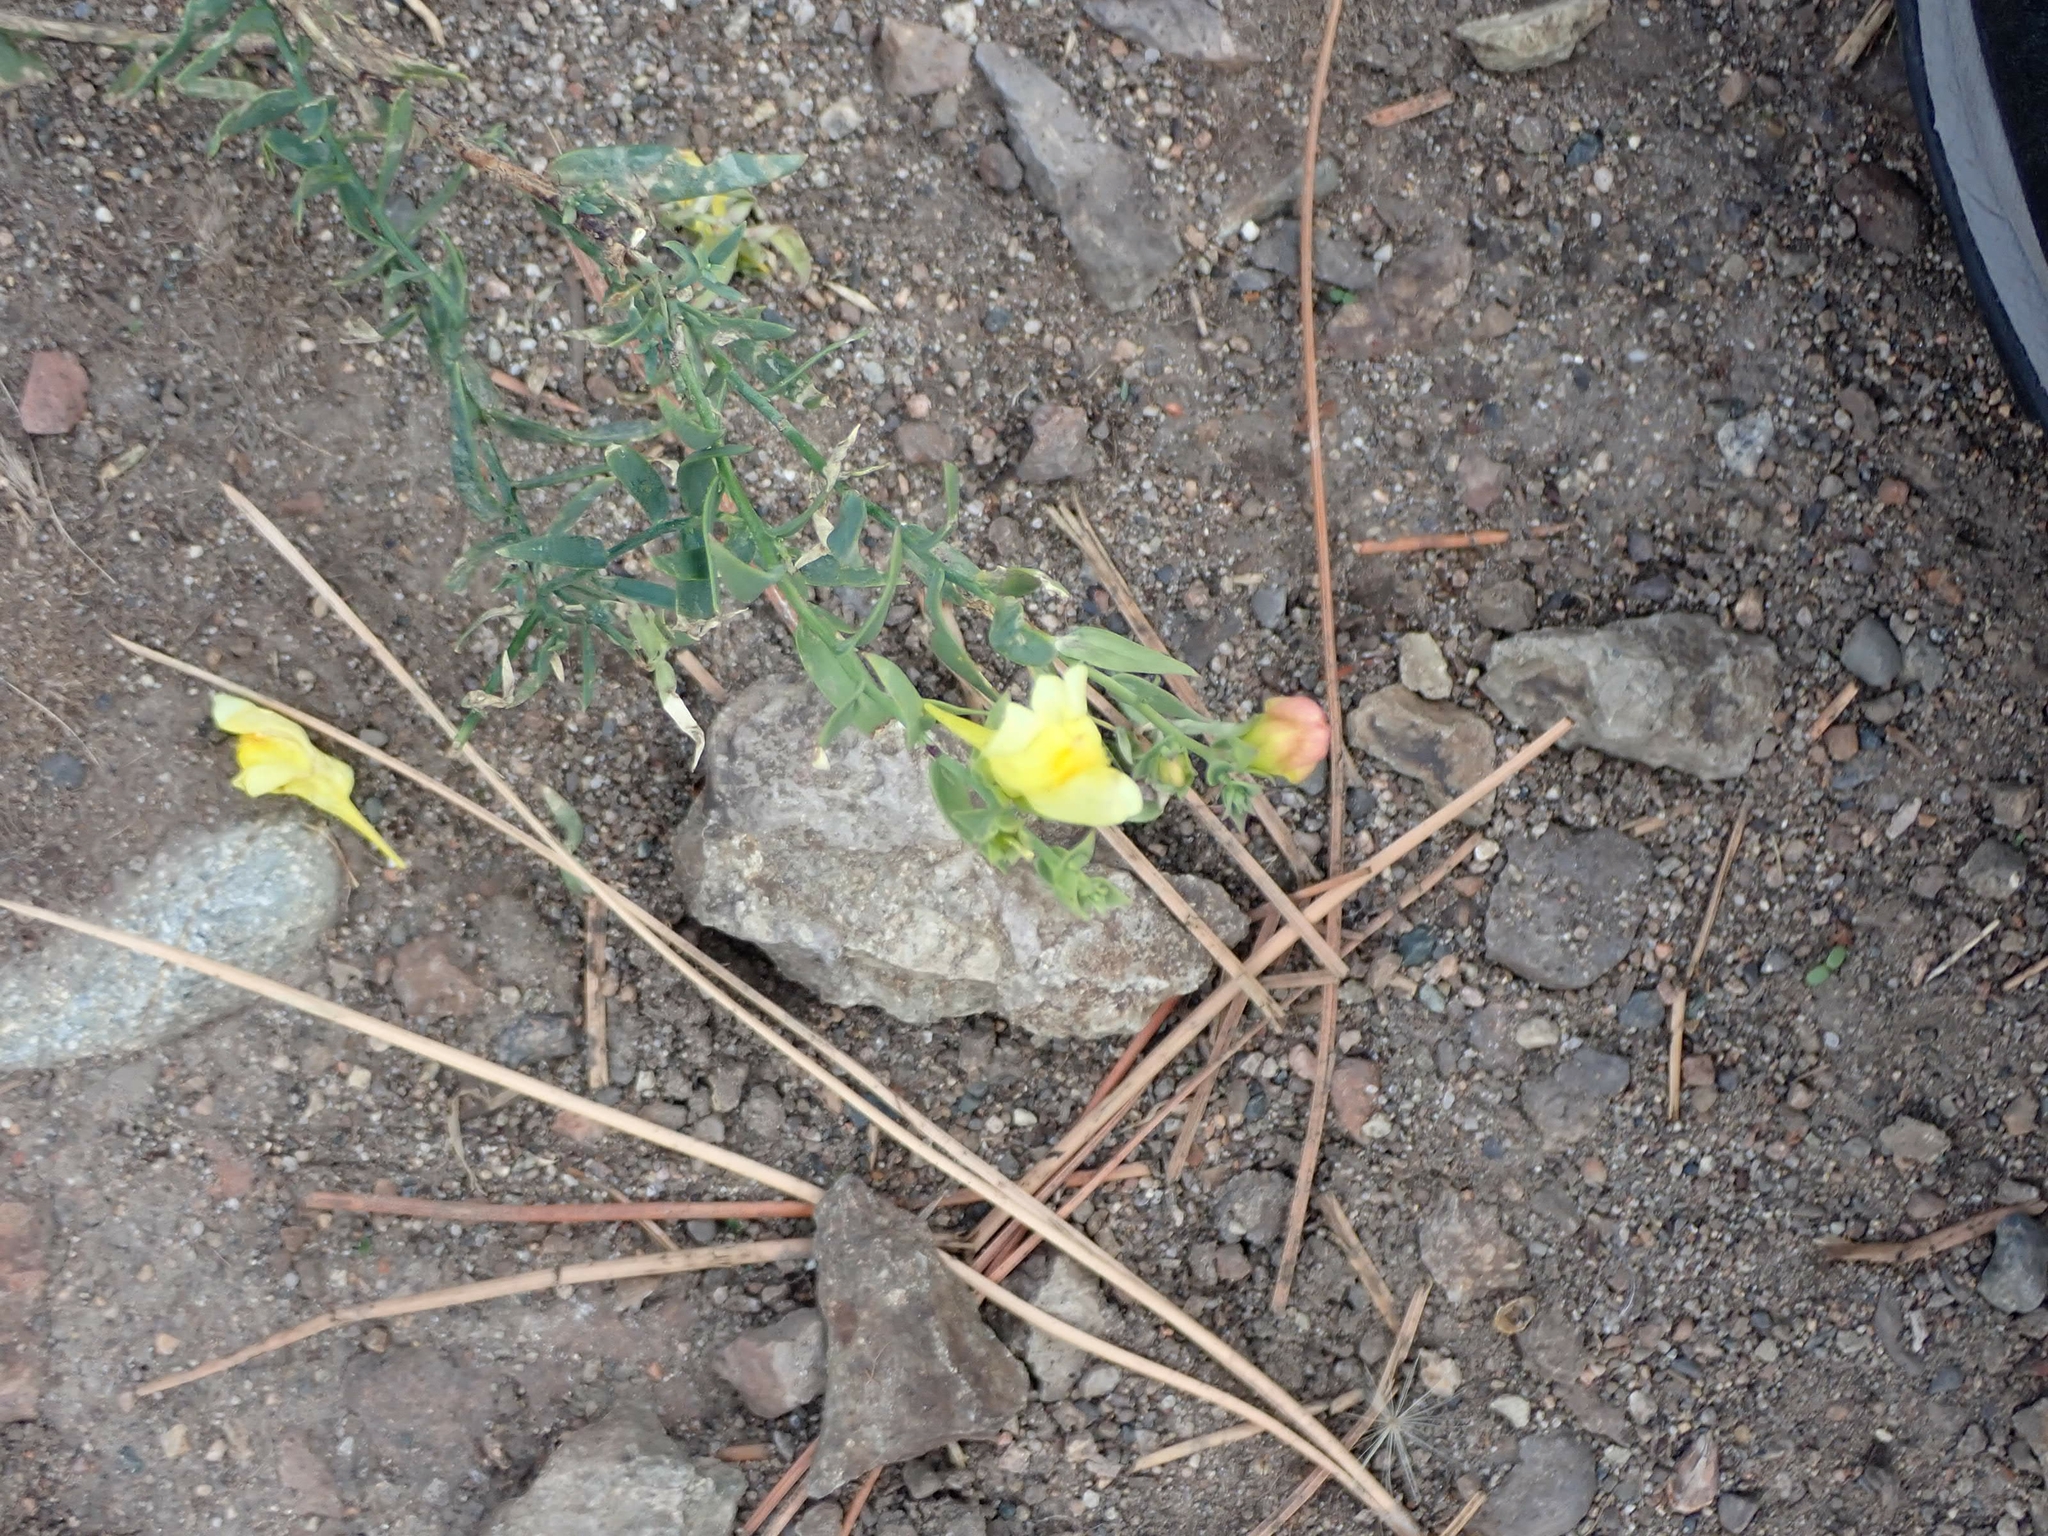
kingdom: Plantae
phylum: Tracheophyta
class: Magnoliopsida
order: Lamiales
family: Plantaginaceae
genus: Linaria
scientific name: Linaria dalmatica
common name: Dalmatian toadflax
